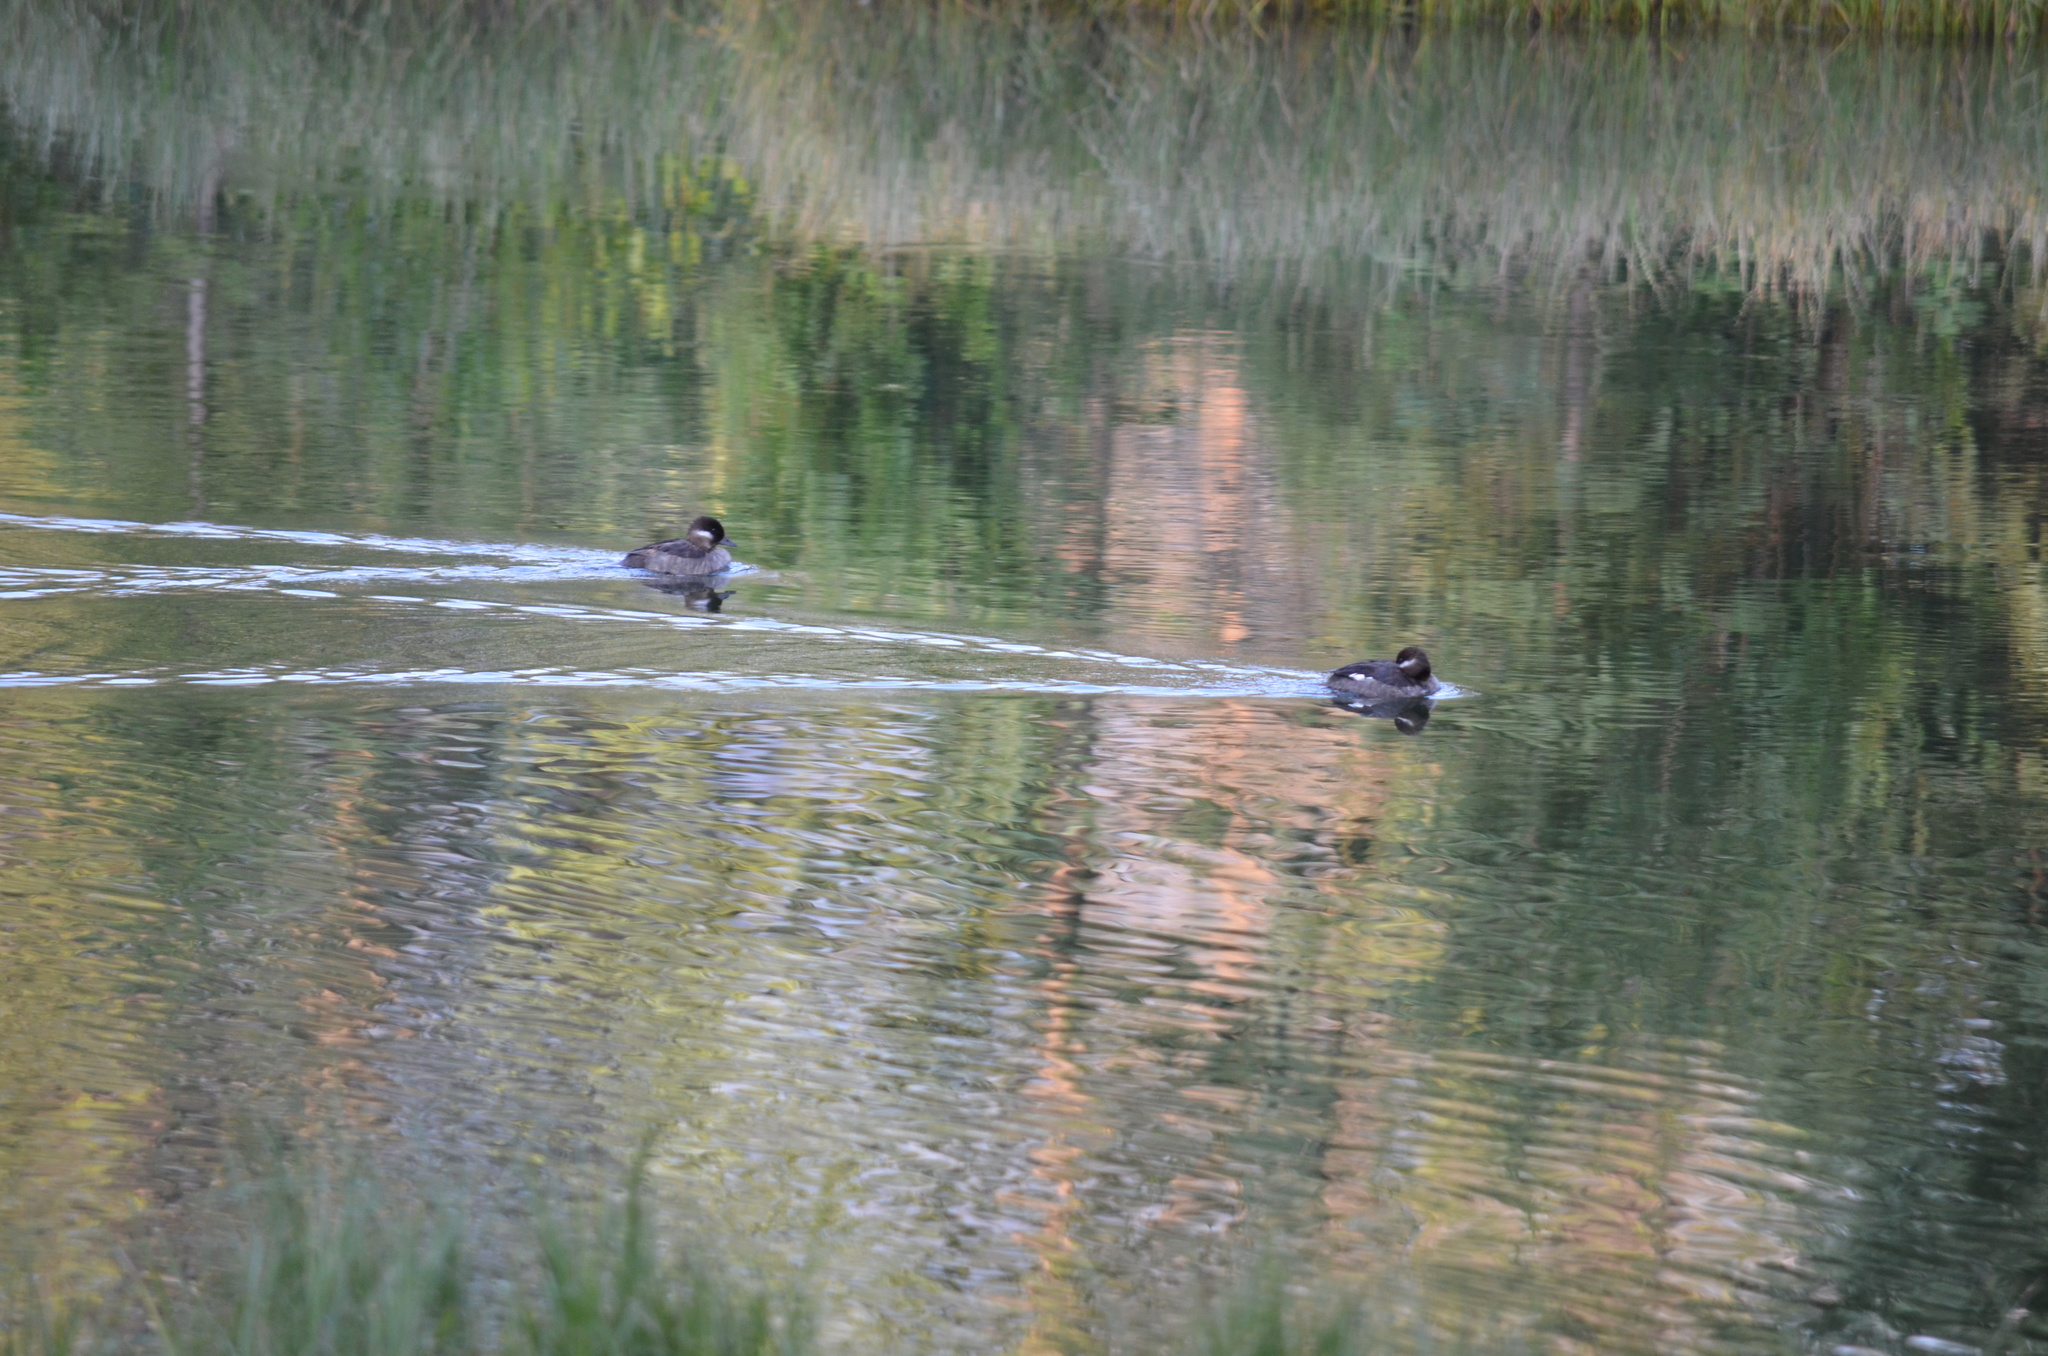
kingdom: Animalia
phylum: Chordata
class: Aves
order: Anseriformes
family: Anatidae
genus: Bucephala
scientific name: Bucephala albeola
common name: Bufflehead
